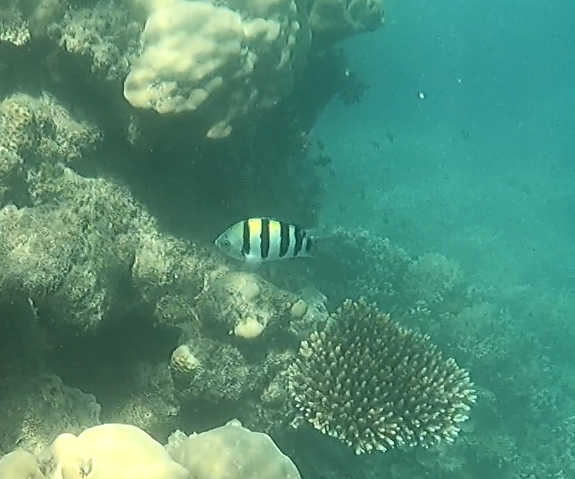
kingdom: Animalia
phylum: Chordata
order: Perciformes
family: Pomacentridae
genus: Abudefduf
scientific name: Abudefduf vaigiensis
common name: Indo-pacific sergeant
